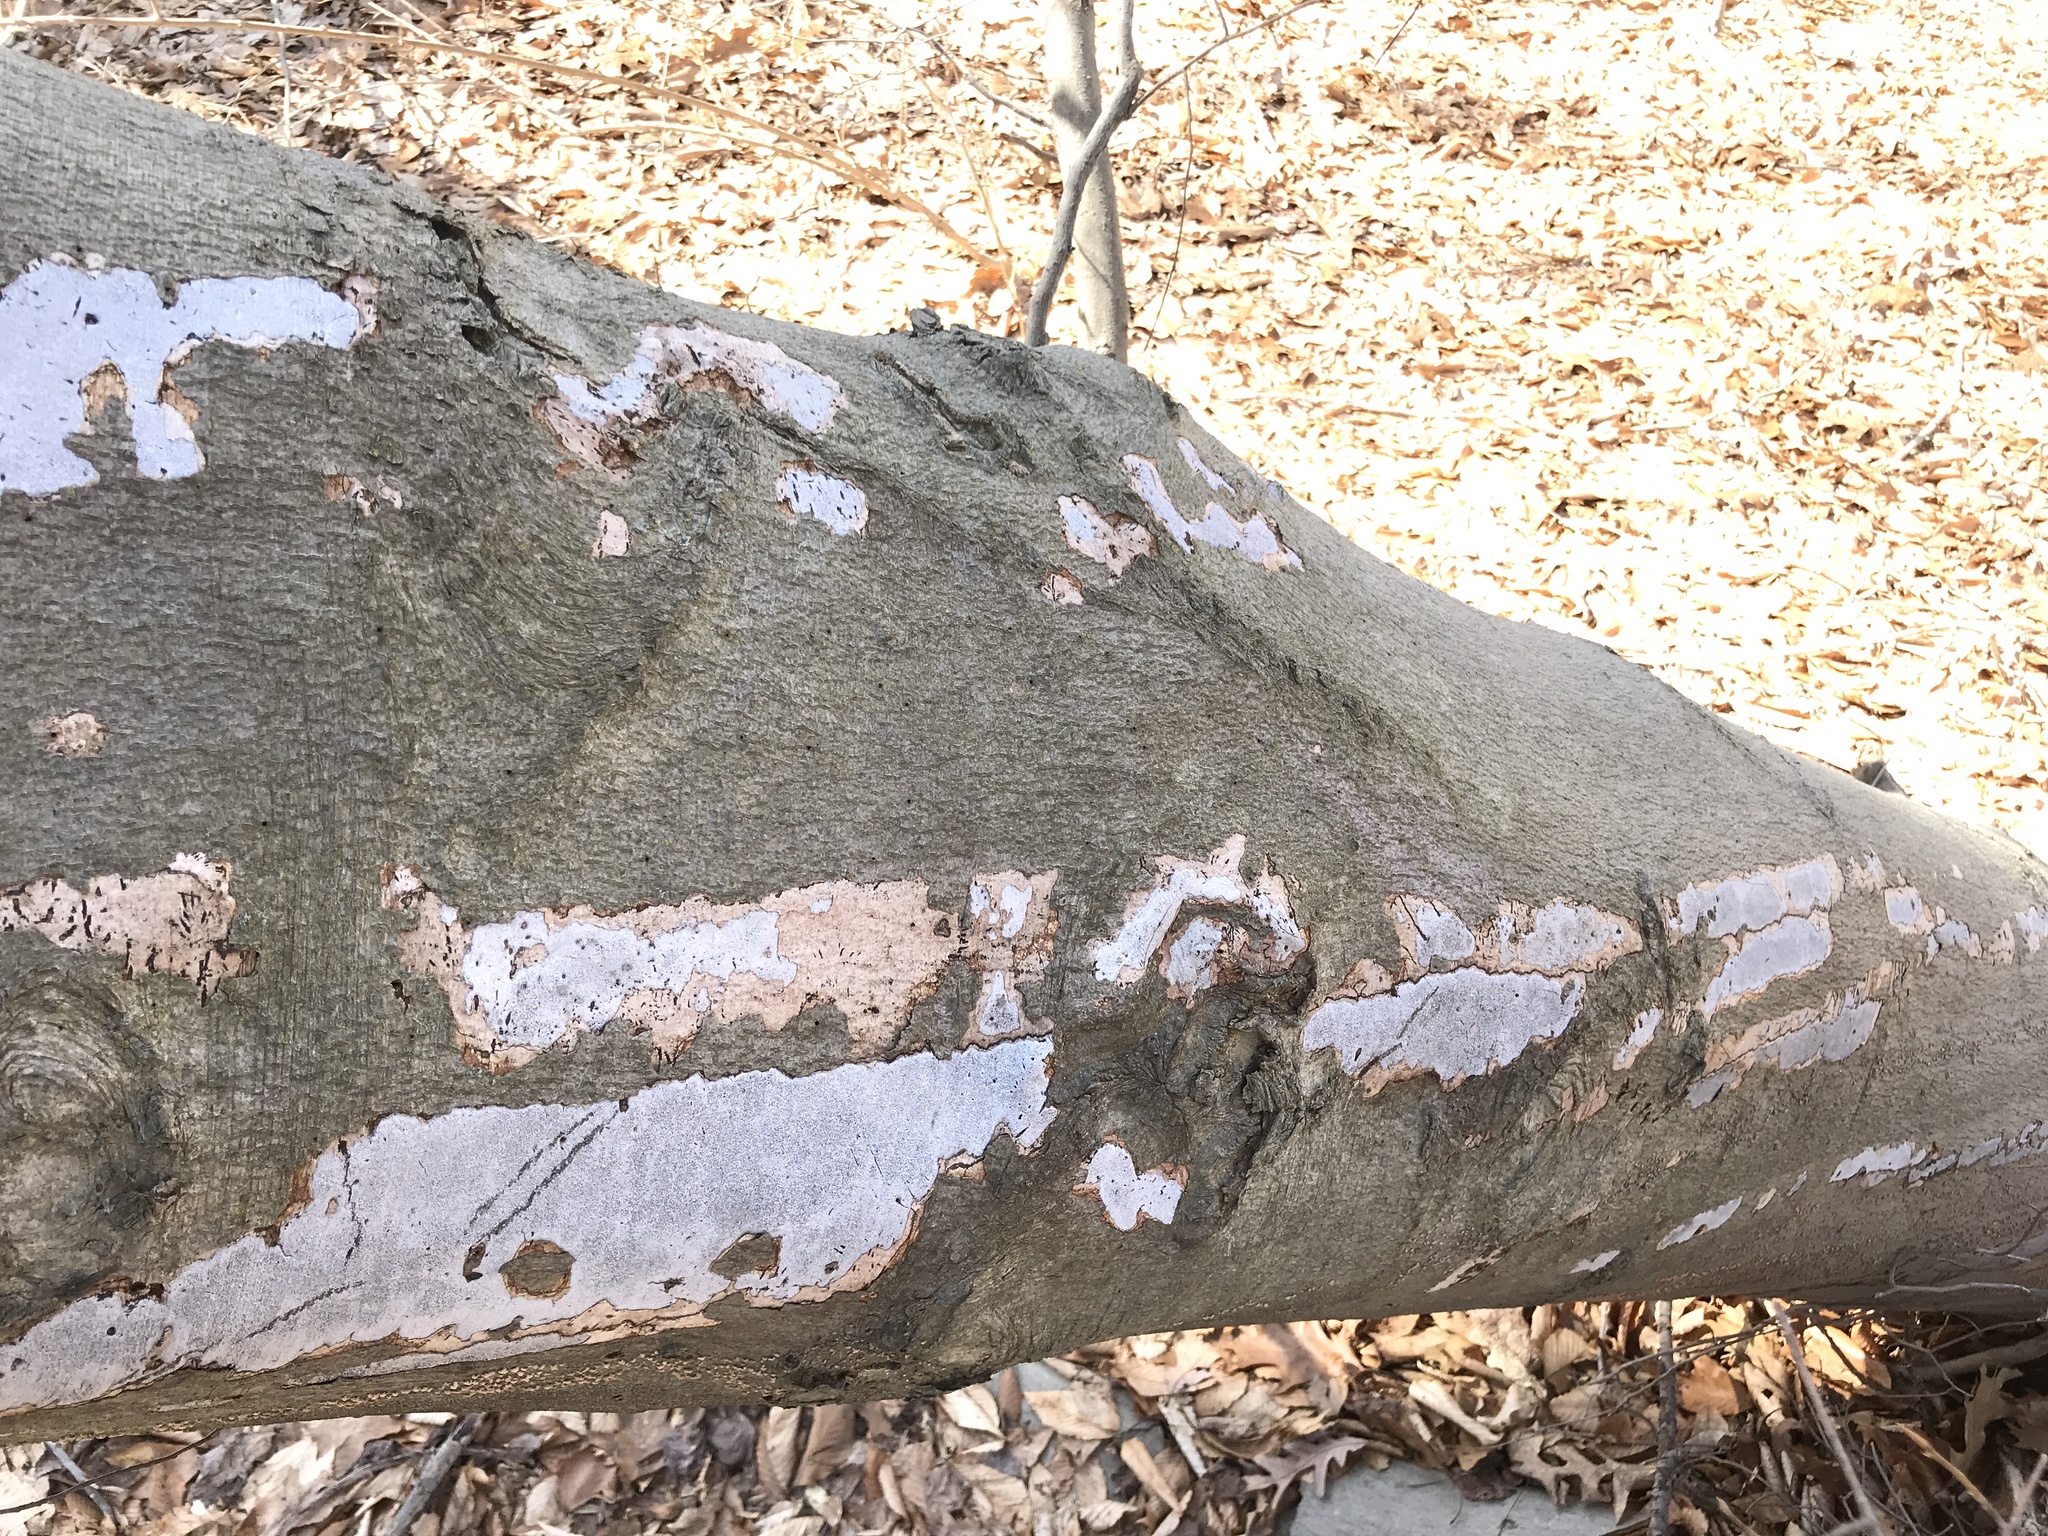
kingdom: Fungi
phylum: Ascomycota
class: Sordariomycetes
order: Xylariales
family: Graphostromataceae
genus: Biscogniauxia
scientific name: Biscogniauxia atropunctata
